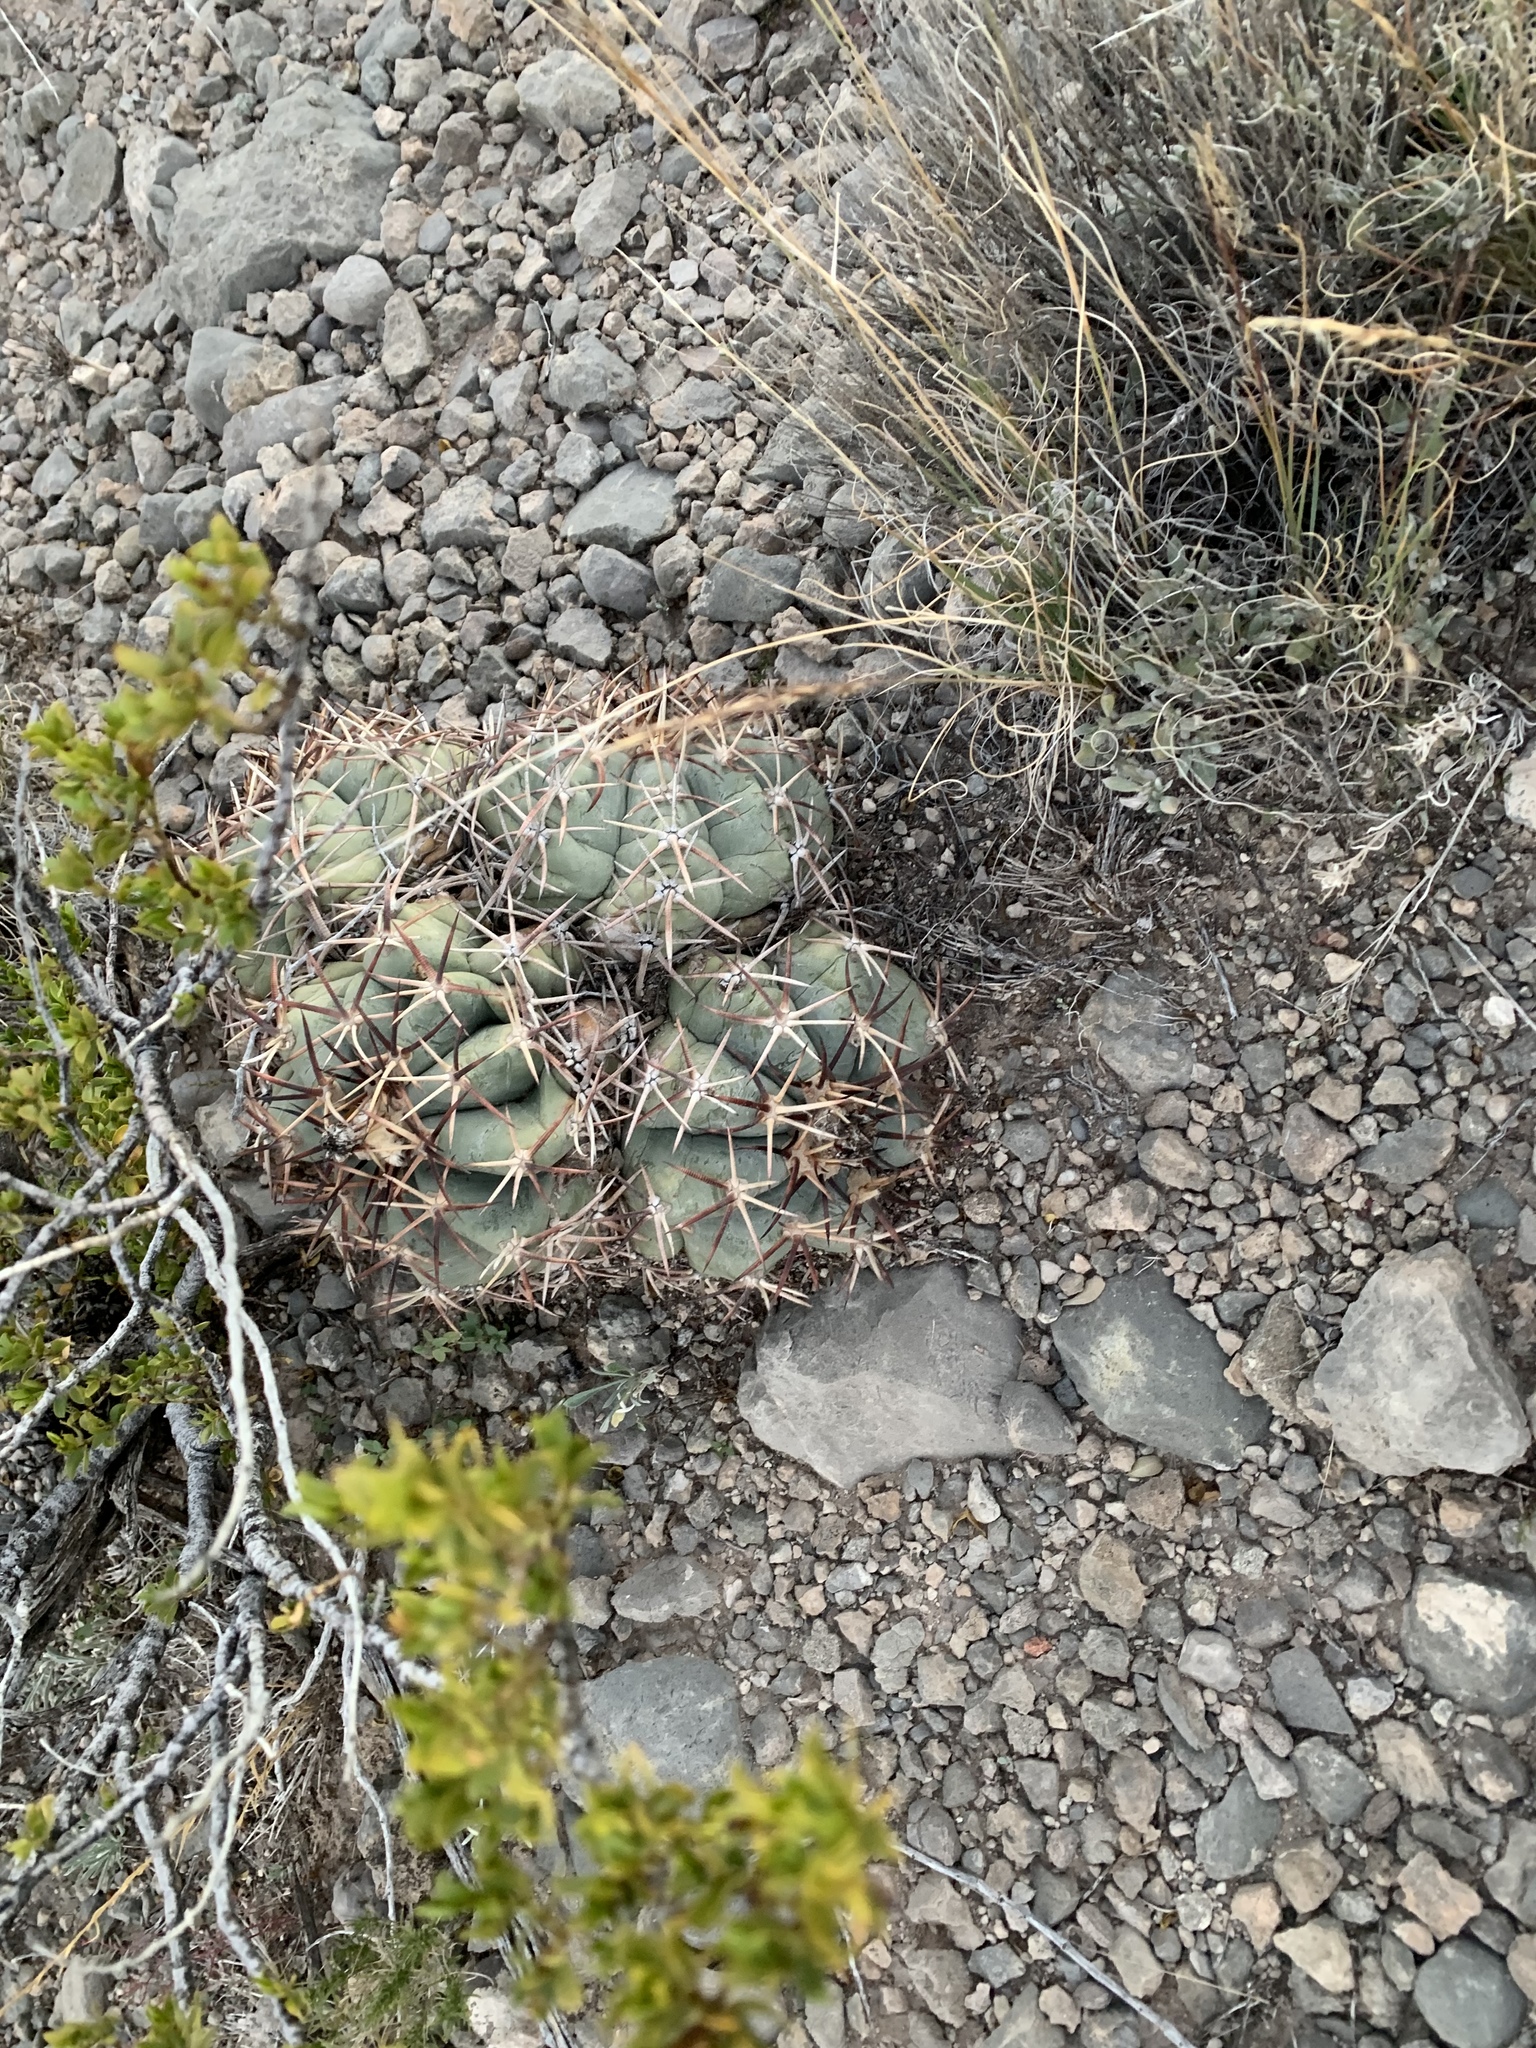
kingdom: Plantae
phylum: Tracheophyta
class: Magnoliopsida
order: Caryophyllales
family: Cactaceae
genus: Echinocactus
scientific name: Echinocactus horizonthalonius
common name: Devilshead
